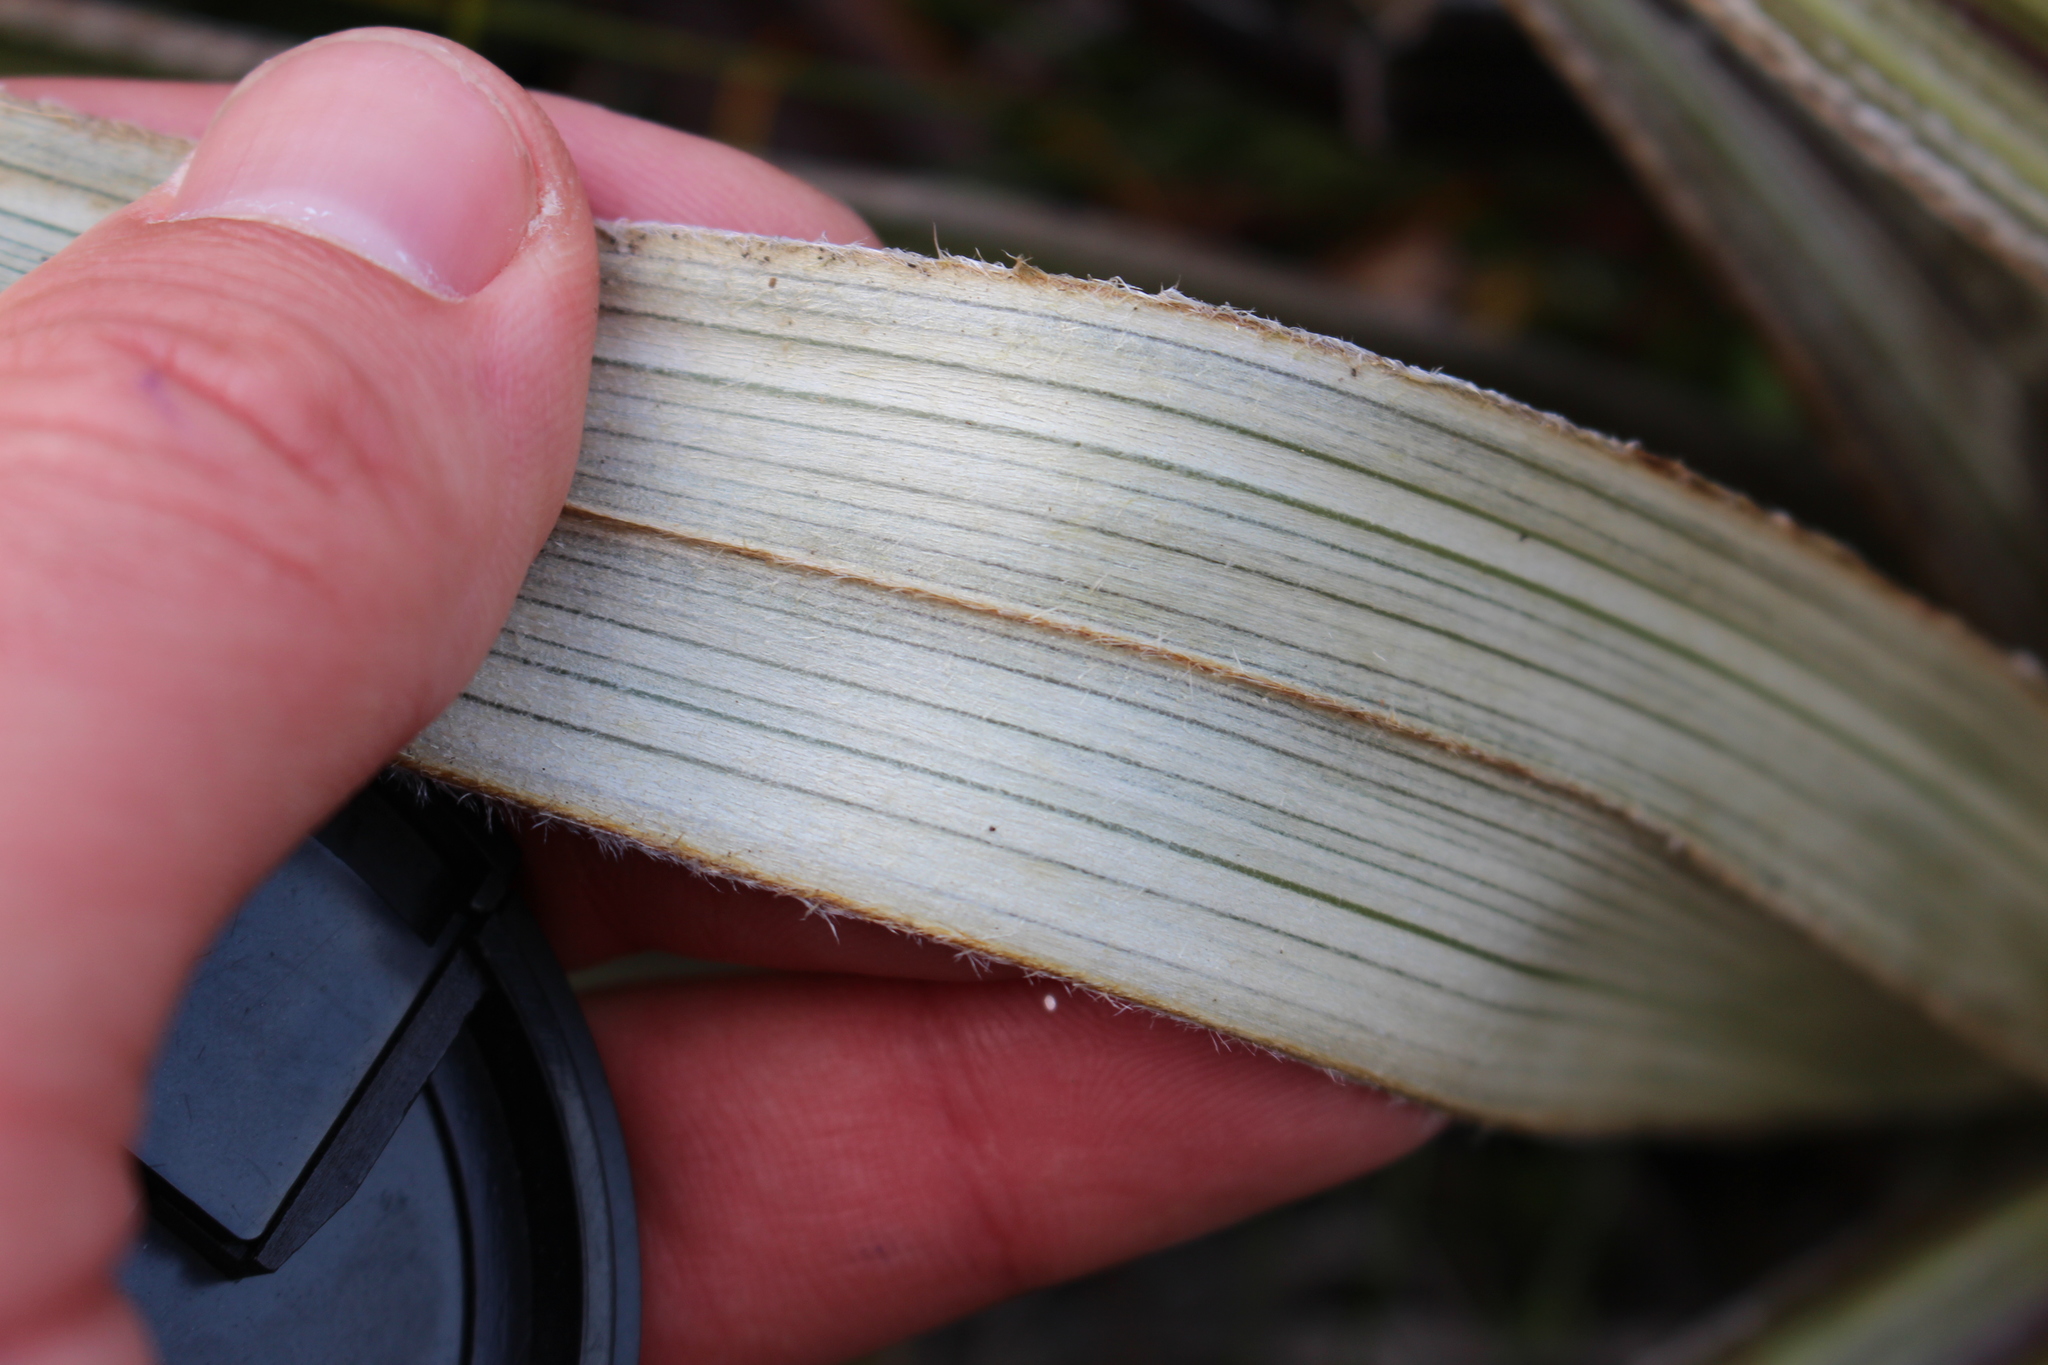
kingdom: Plantae
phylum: Tracheophyta
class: Liliopsida
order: Asparagales
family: Asteliaceae
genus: Astelia
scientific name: Astelia nervosa
